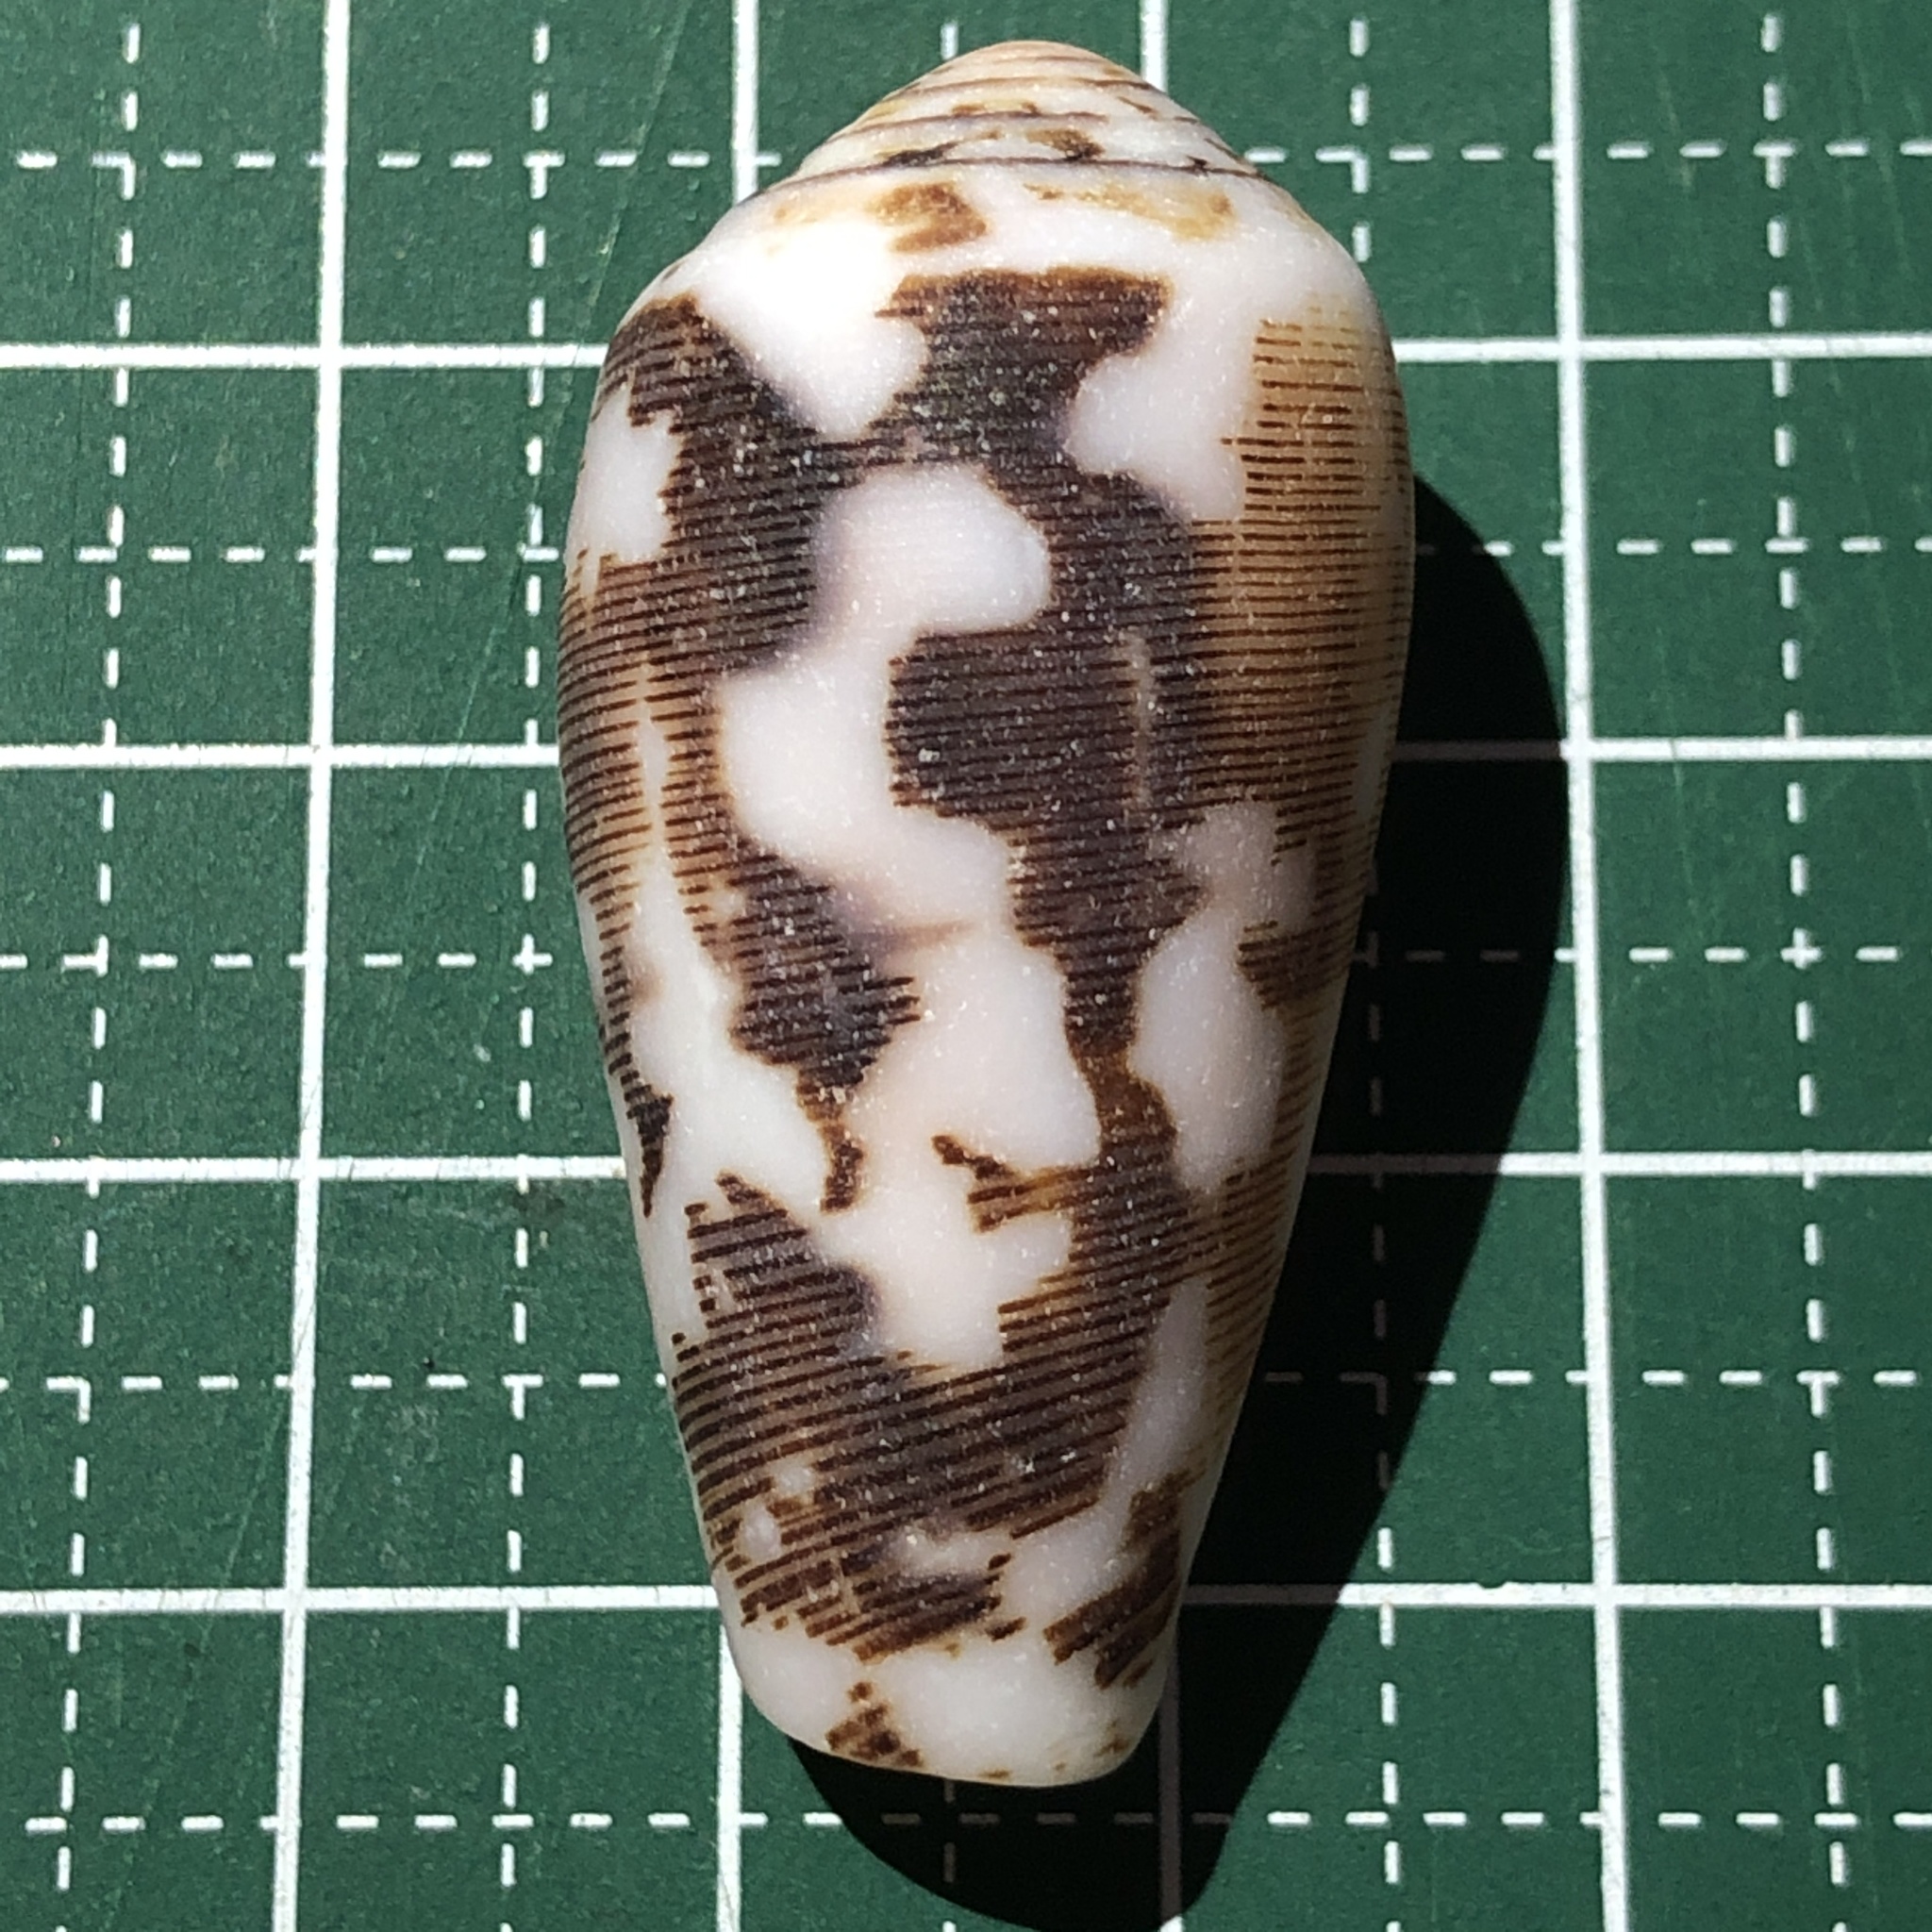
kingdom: Animalia
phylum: Mollusca
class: Gastropoda
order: Neogastropoda
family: Conidae
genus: Conus
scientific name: Conus striatus
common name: Striated cone
